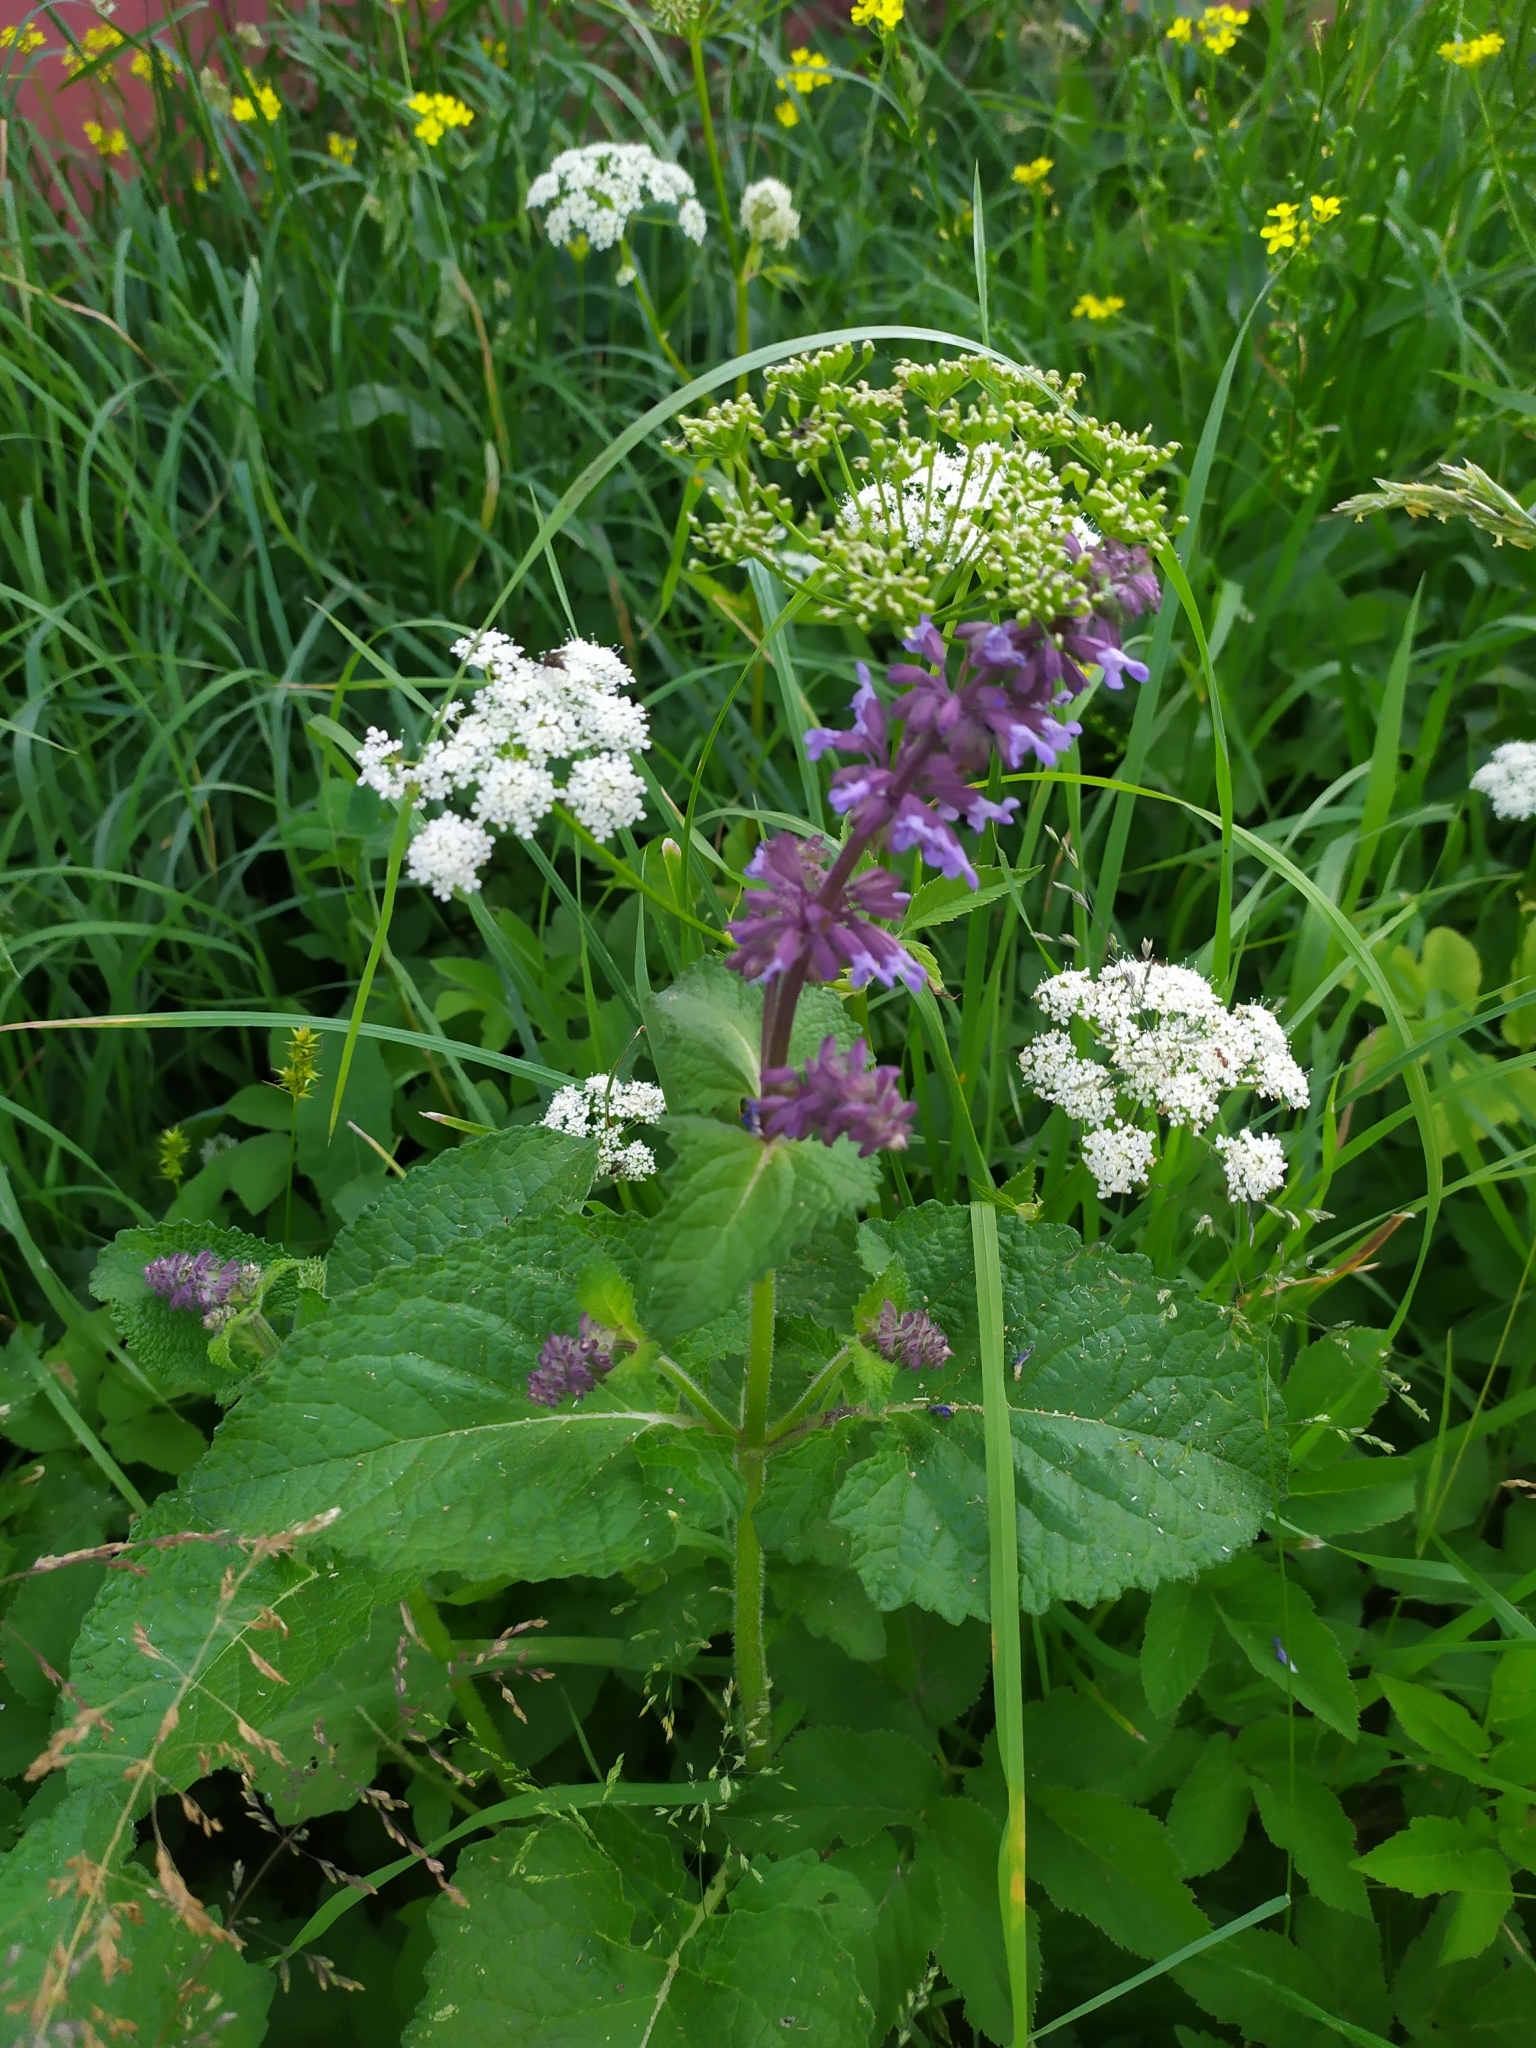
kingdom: Plantae
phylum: Tracheophyta
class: Magnoliopsida
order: Lamiales
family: Lamiaceae
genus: Salvia
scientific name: Salvia verticillata
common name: Whorled clary
